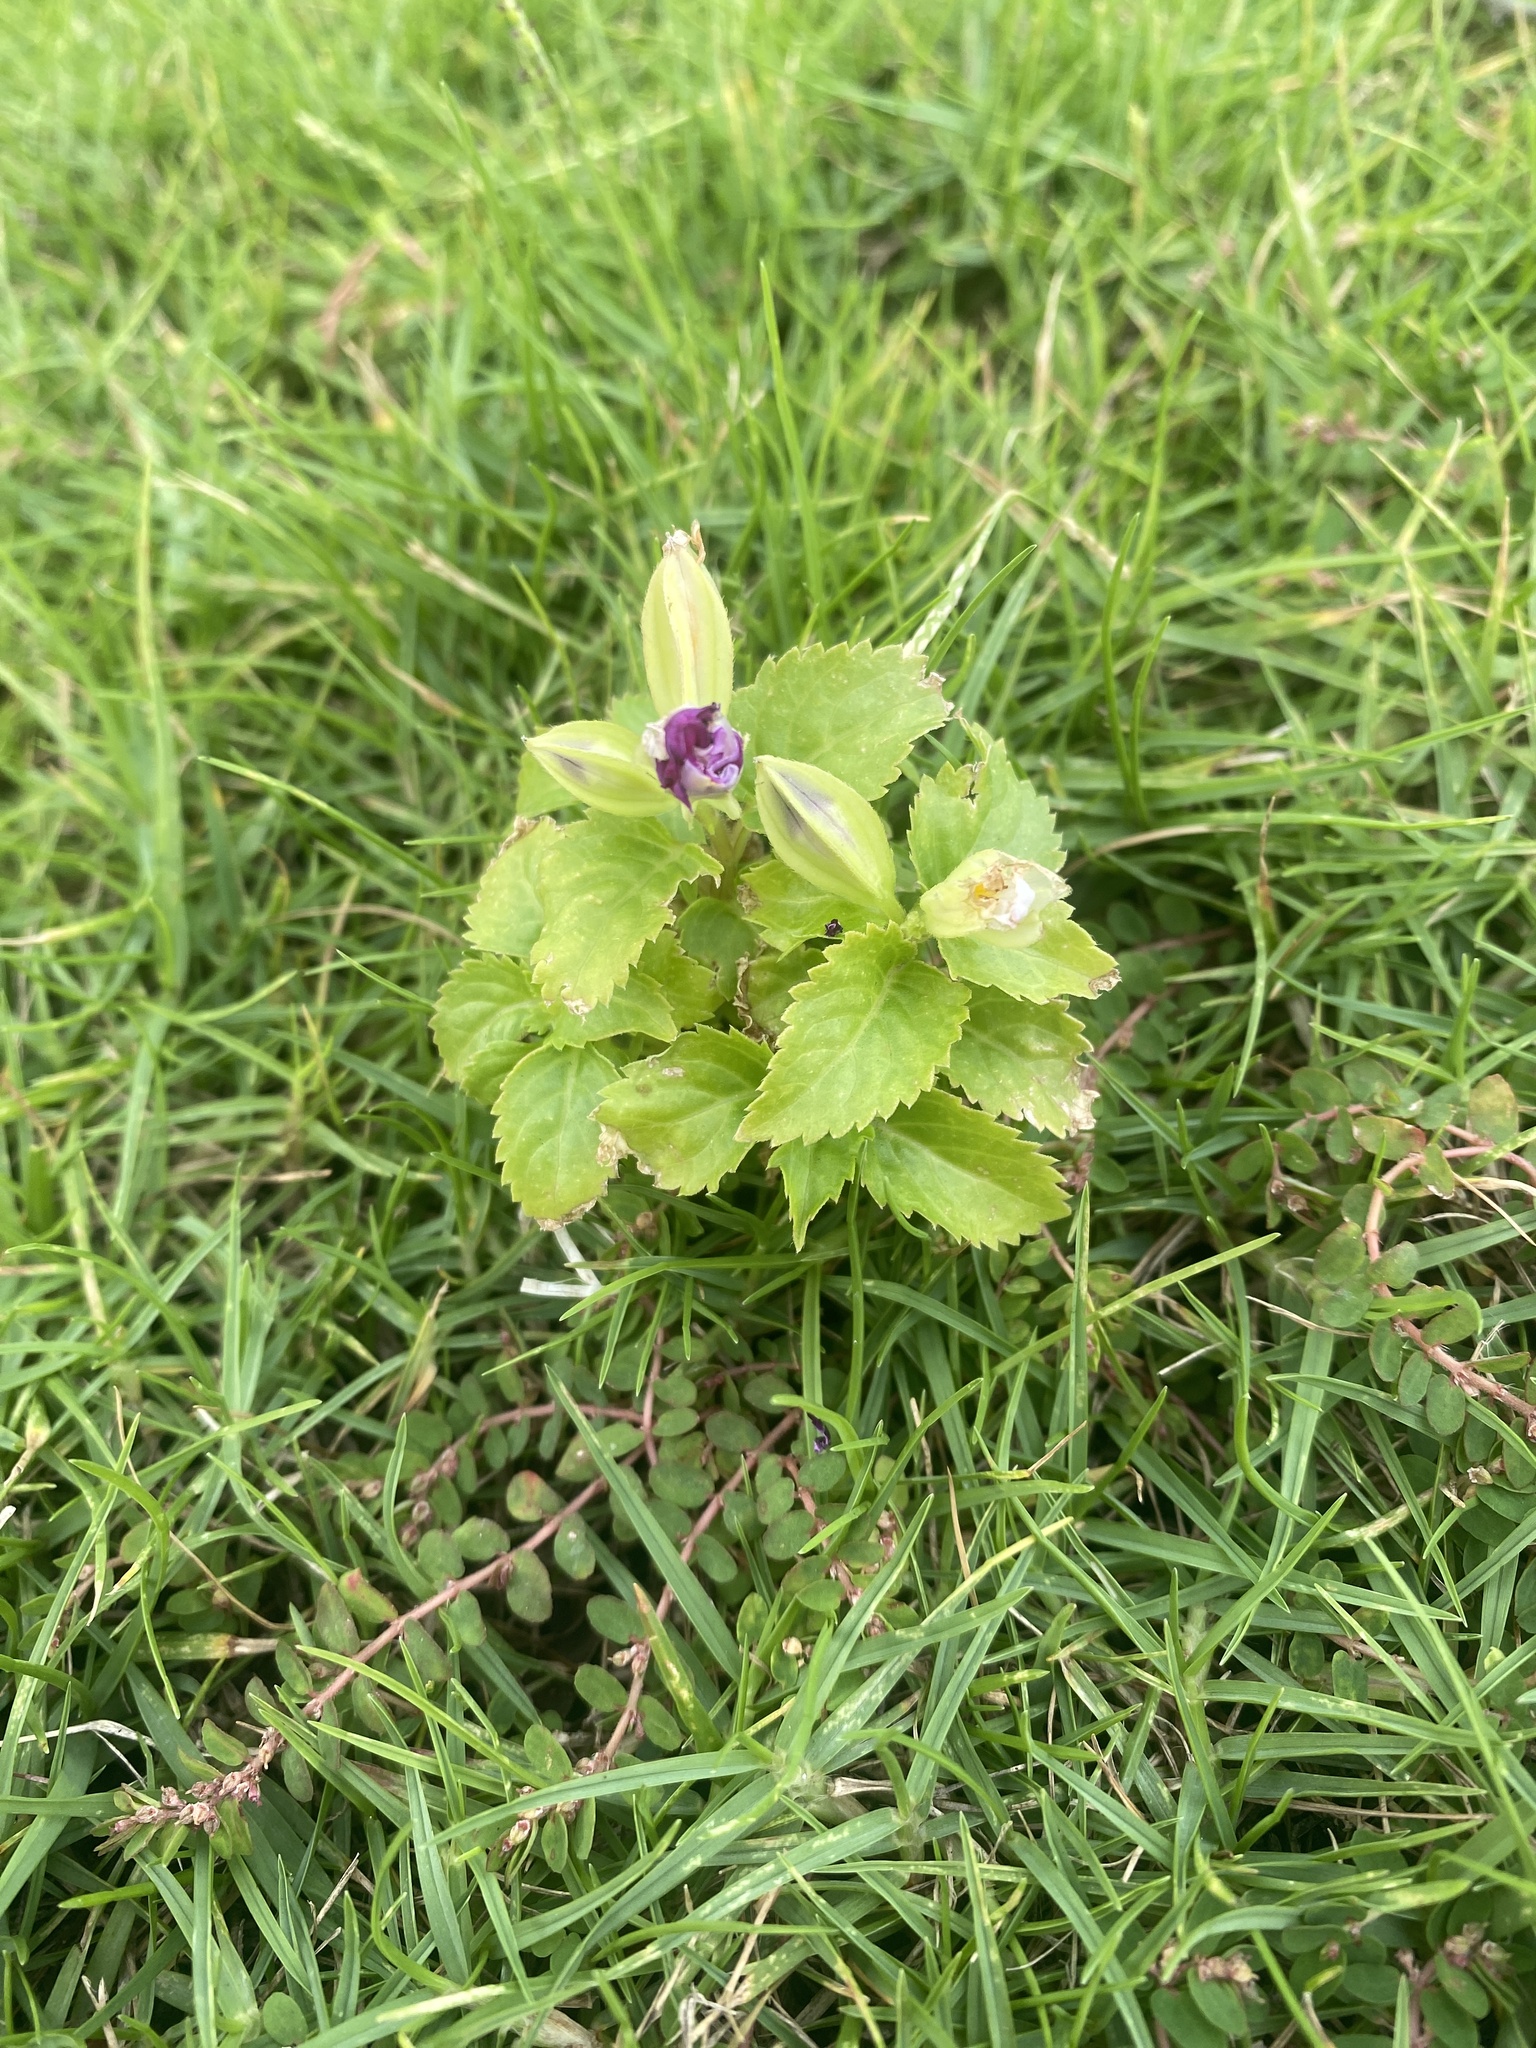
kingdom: Plantae
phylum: Tracheophyta
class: Magnoliopsida
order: Lamiales
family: Linderniaceae
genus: Torenia
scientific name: Torenia fournieri
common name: Bluewings
